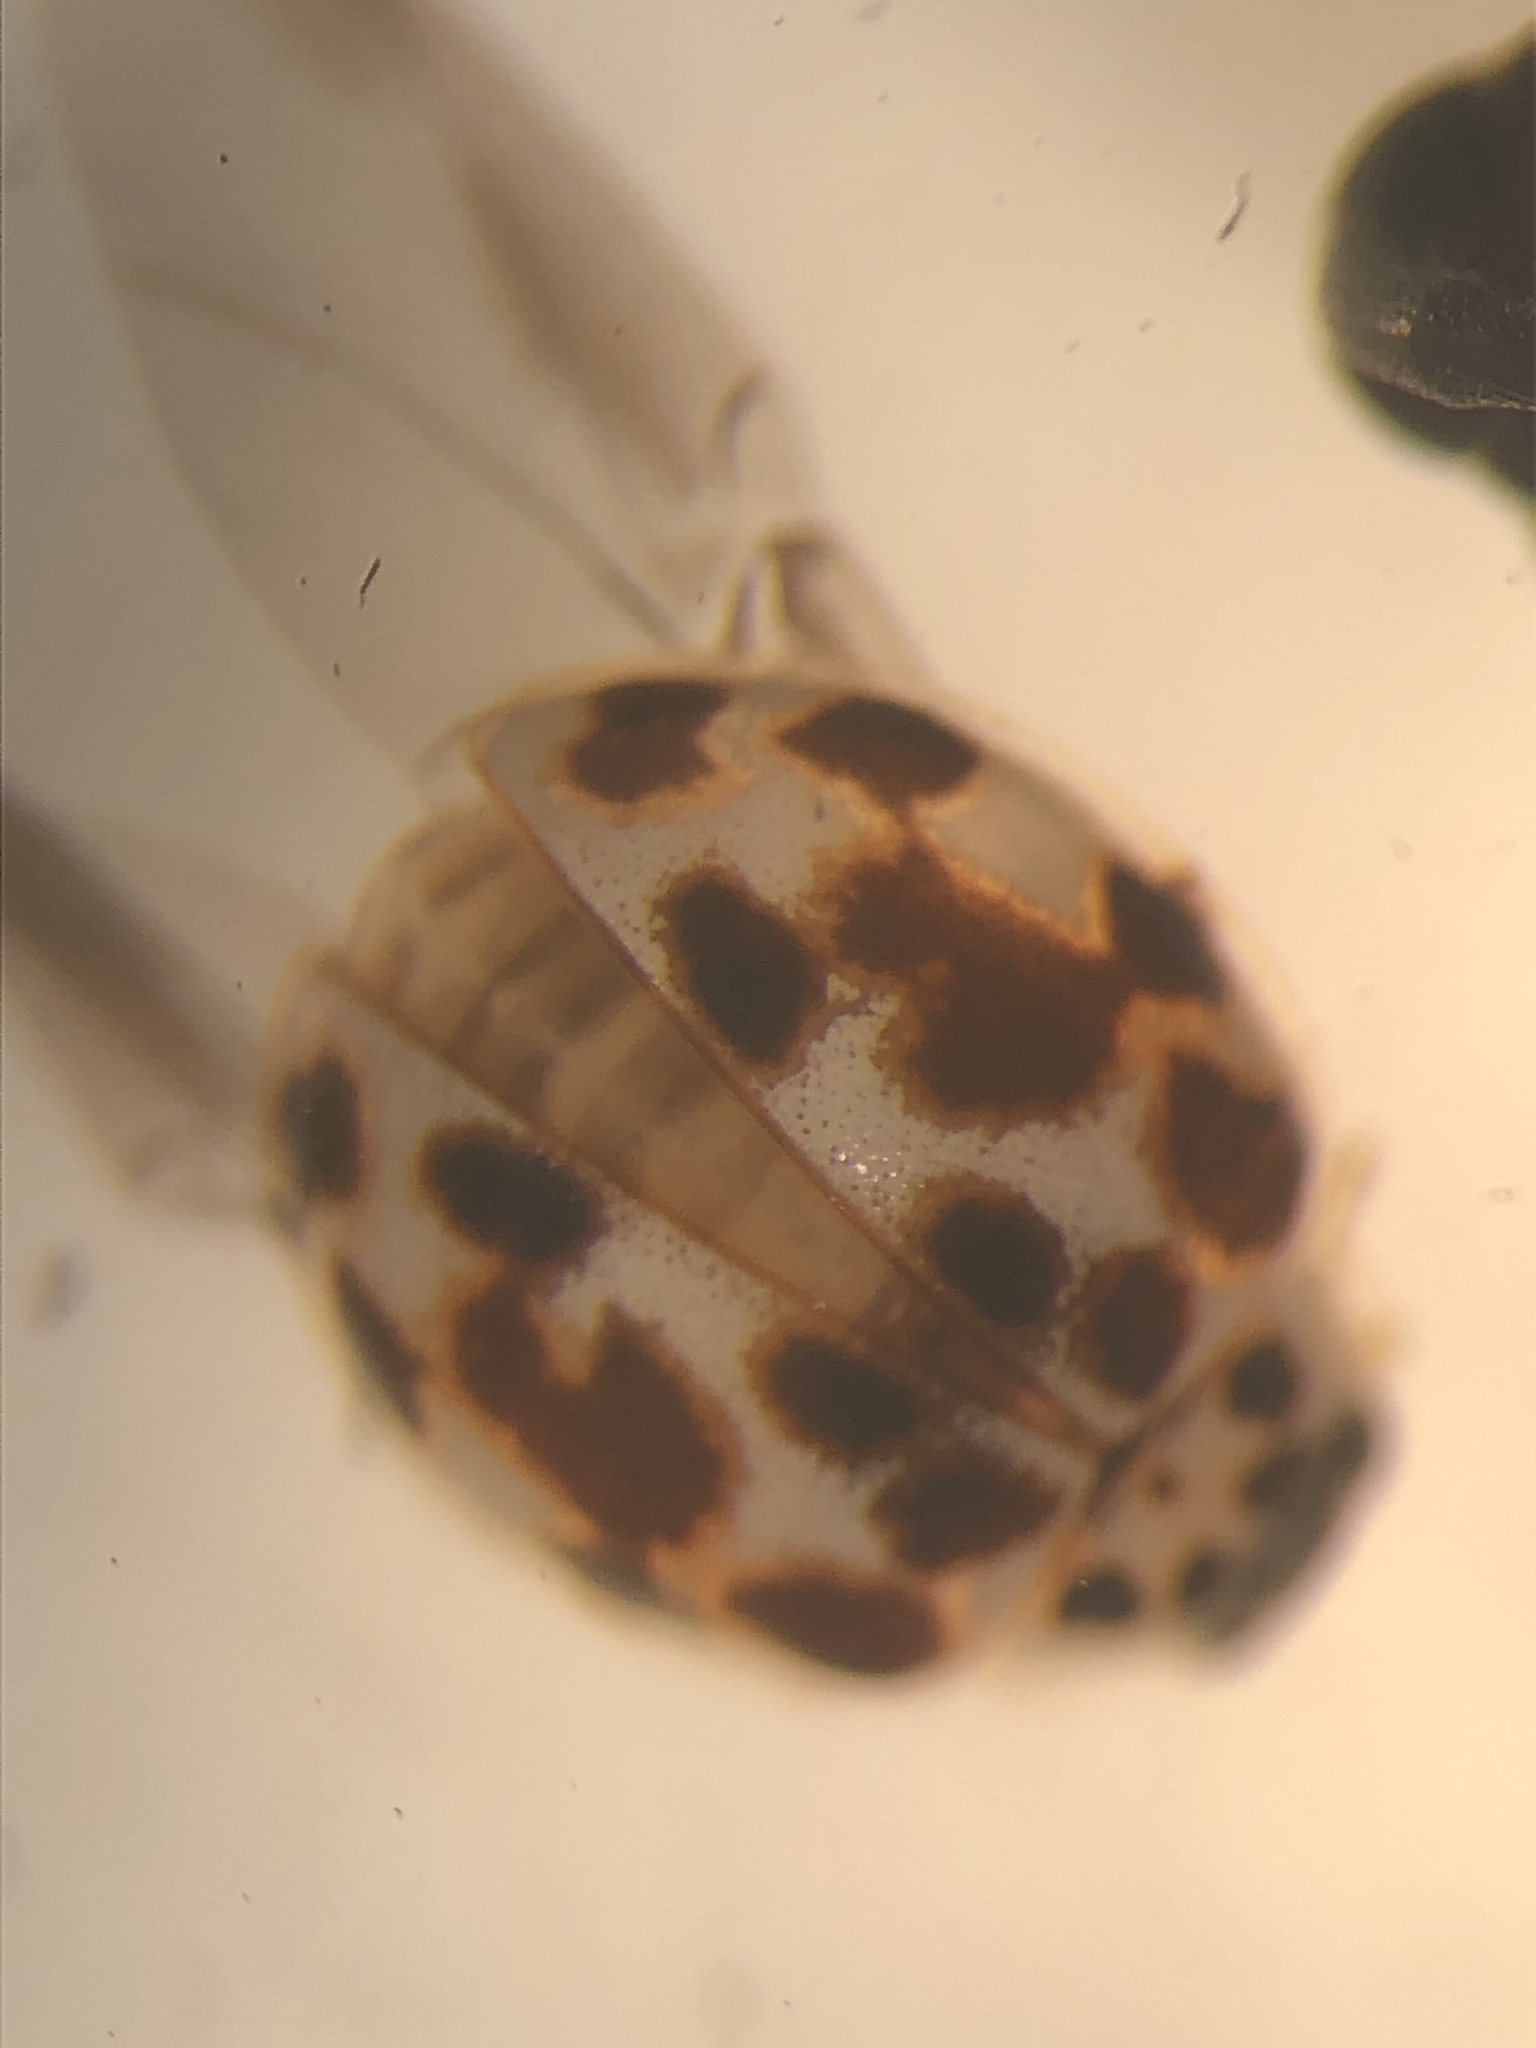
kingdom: Animalia
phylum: Arthropoda
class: Insecta
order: Coleoptera
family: Coccinellidae
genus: Psyllobora
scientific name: Psyllobora vigintimaculata
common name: Ladybird beetle
